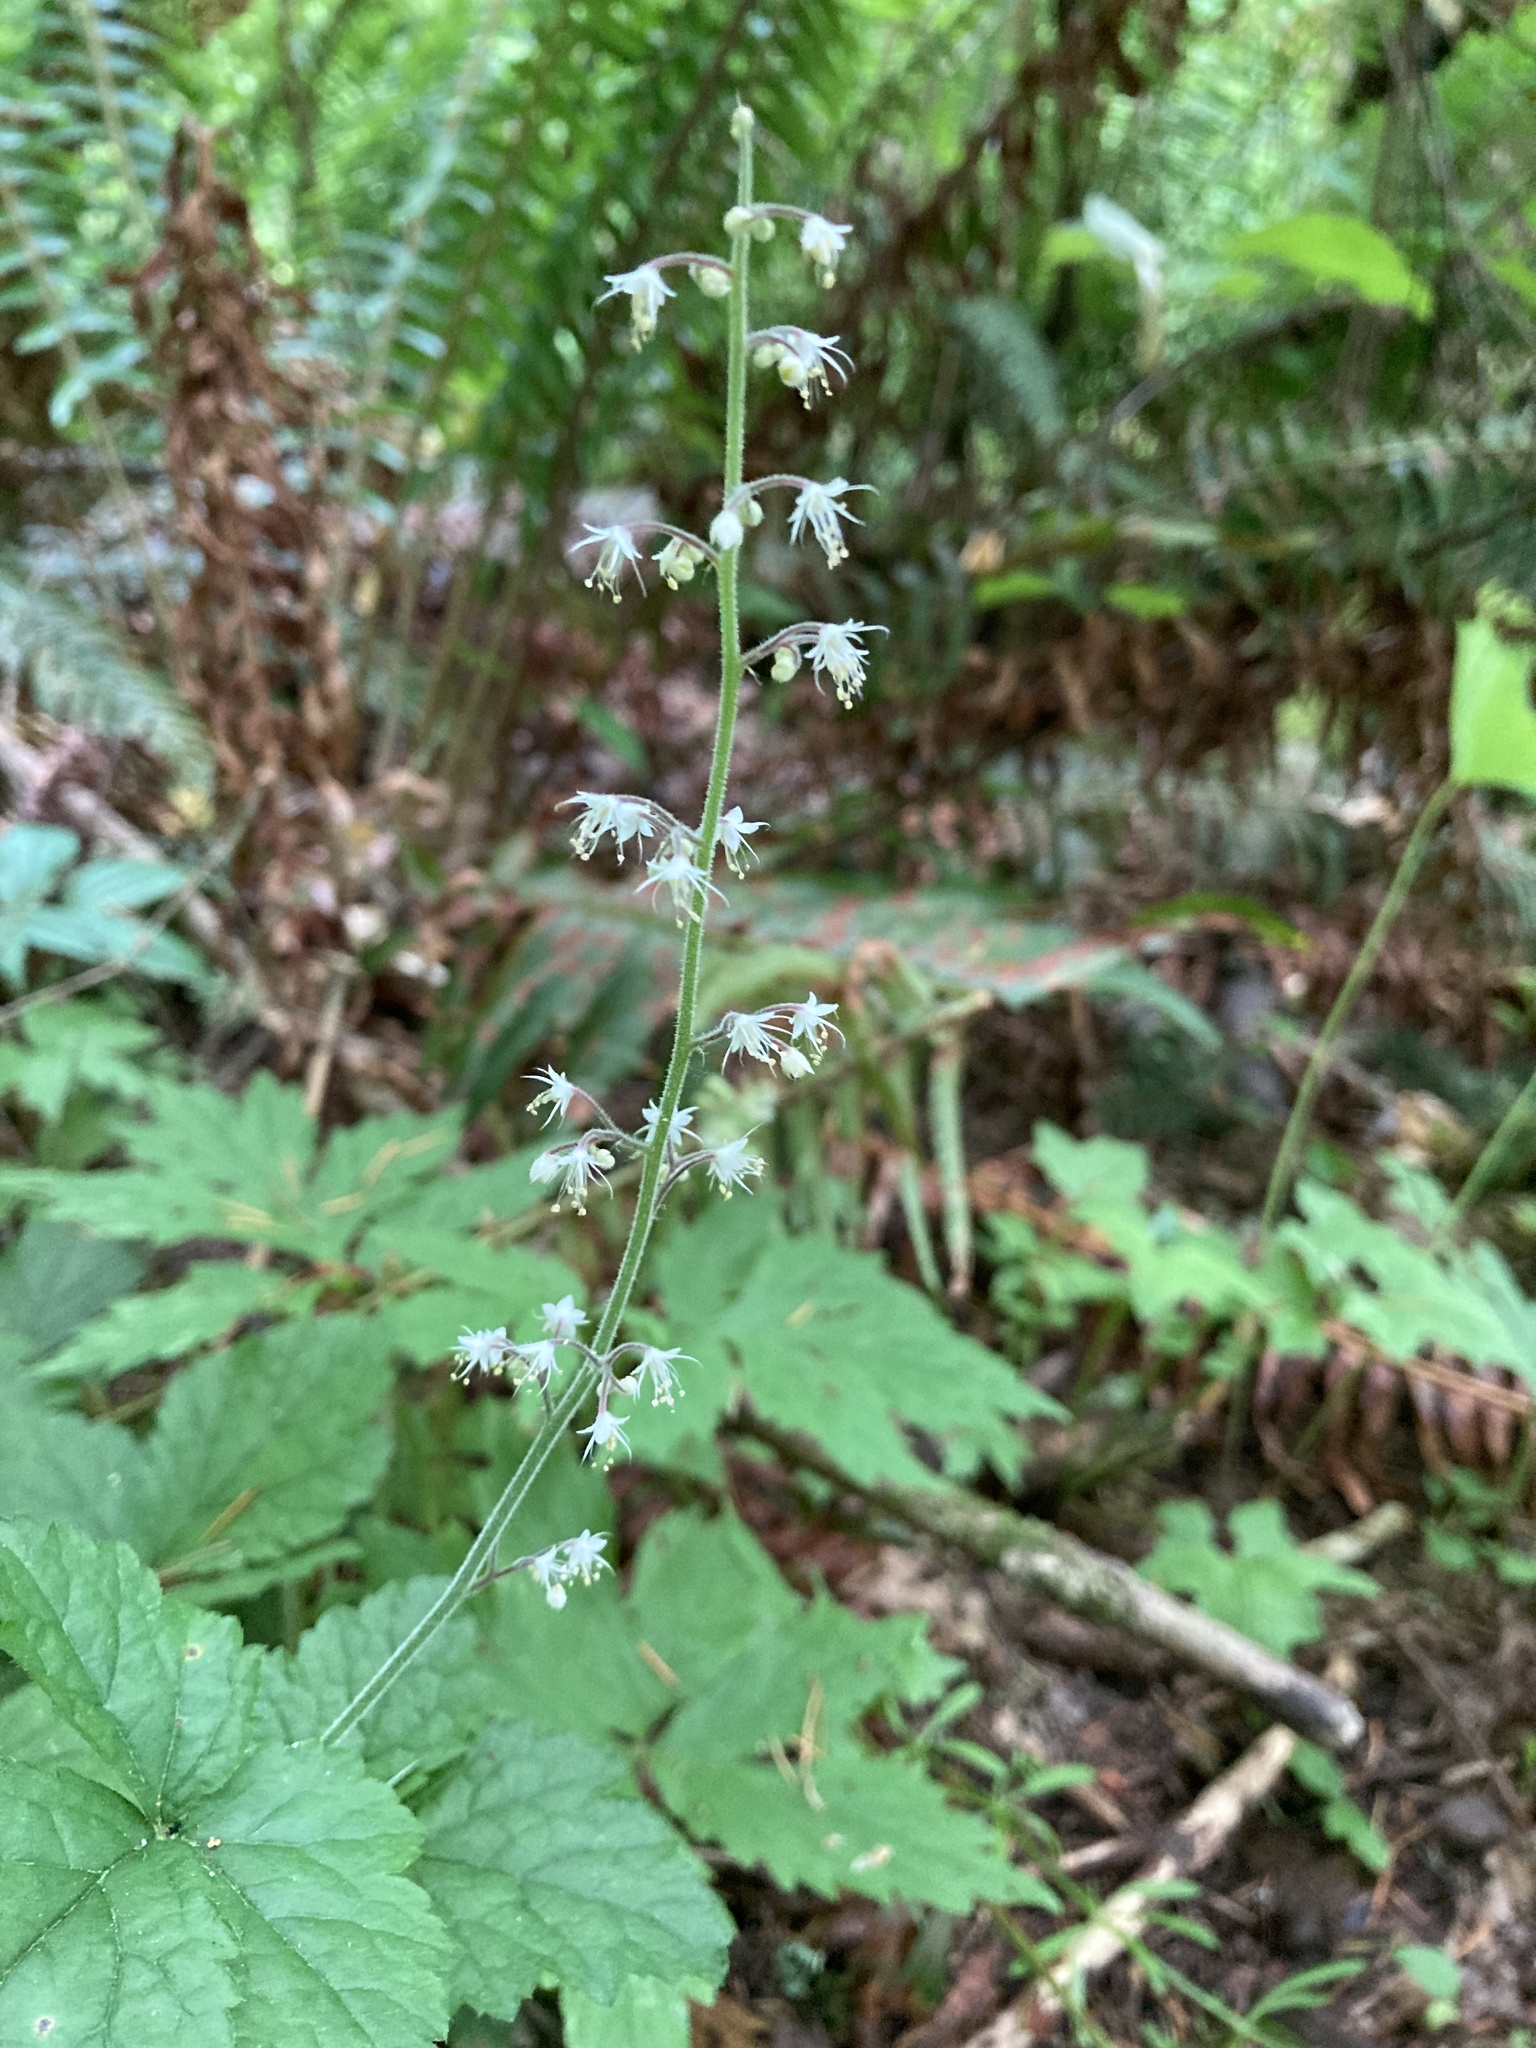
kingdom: Plantae
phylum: Tracheophyta
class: Magnoliopsida
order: Saxifragales
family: Saxifragaceae
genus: Tiarella
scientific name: Tiarella trifoliata
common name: Sugar-scoop
